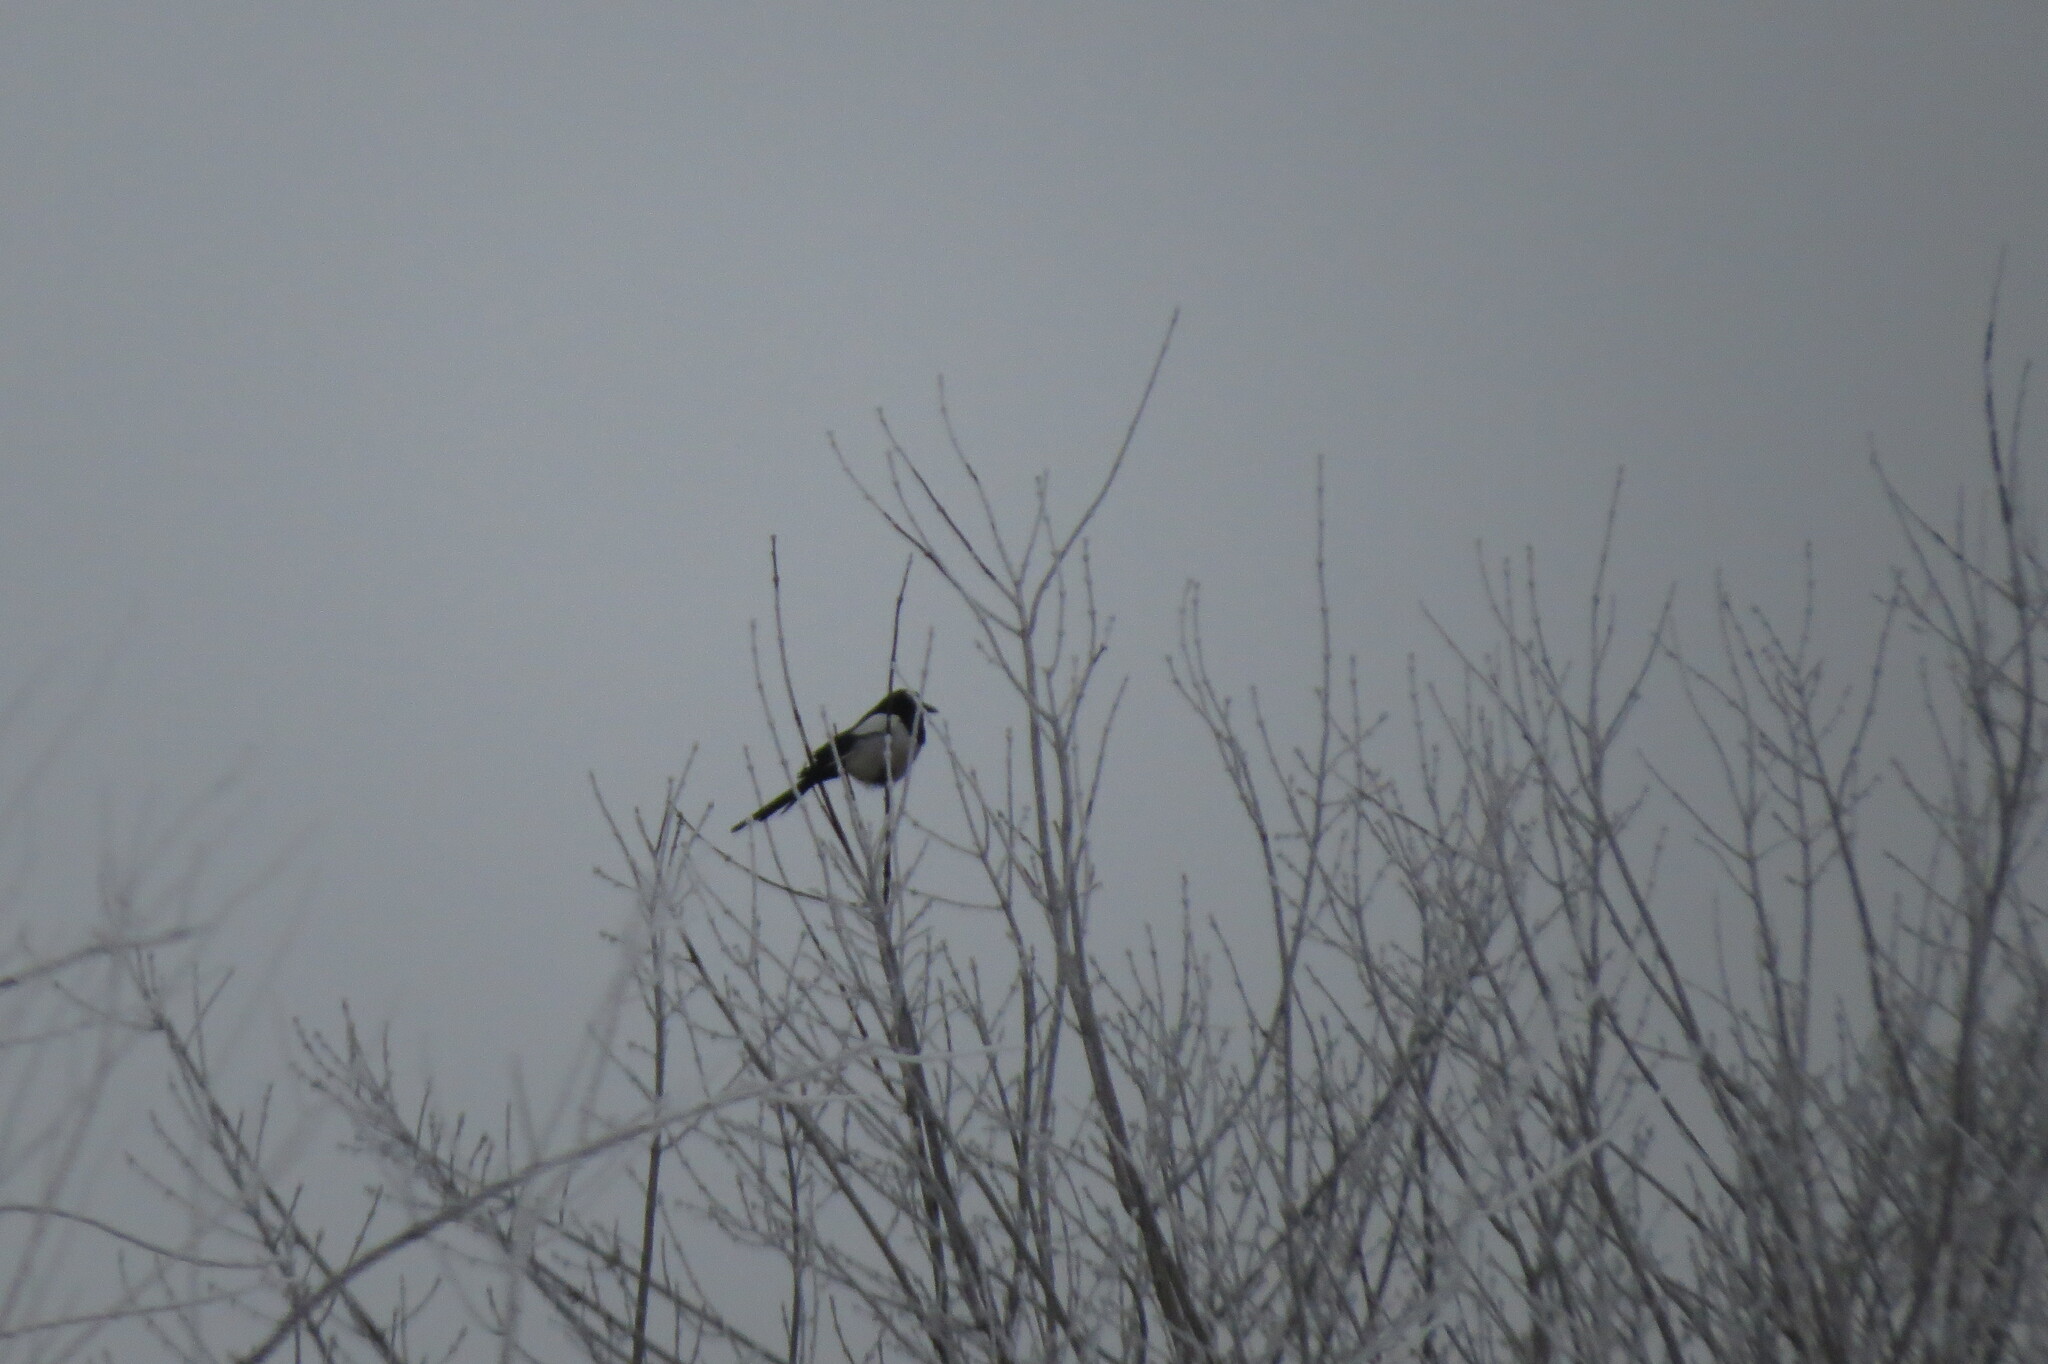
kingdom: Animalia
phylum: Chordata
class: Aves
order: Passeriformes
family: Corvidae
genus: Pica
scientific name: Pica pica
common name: Eurasian magpie
